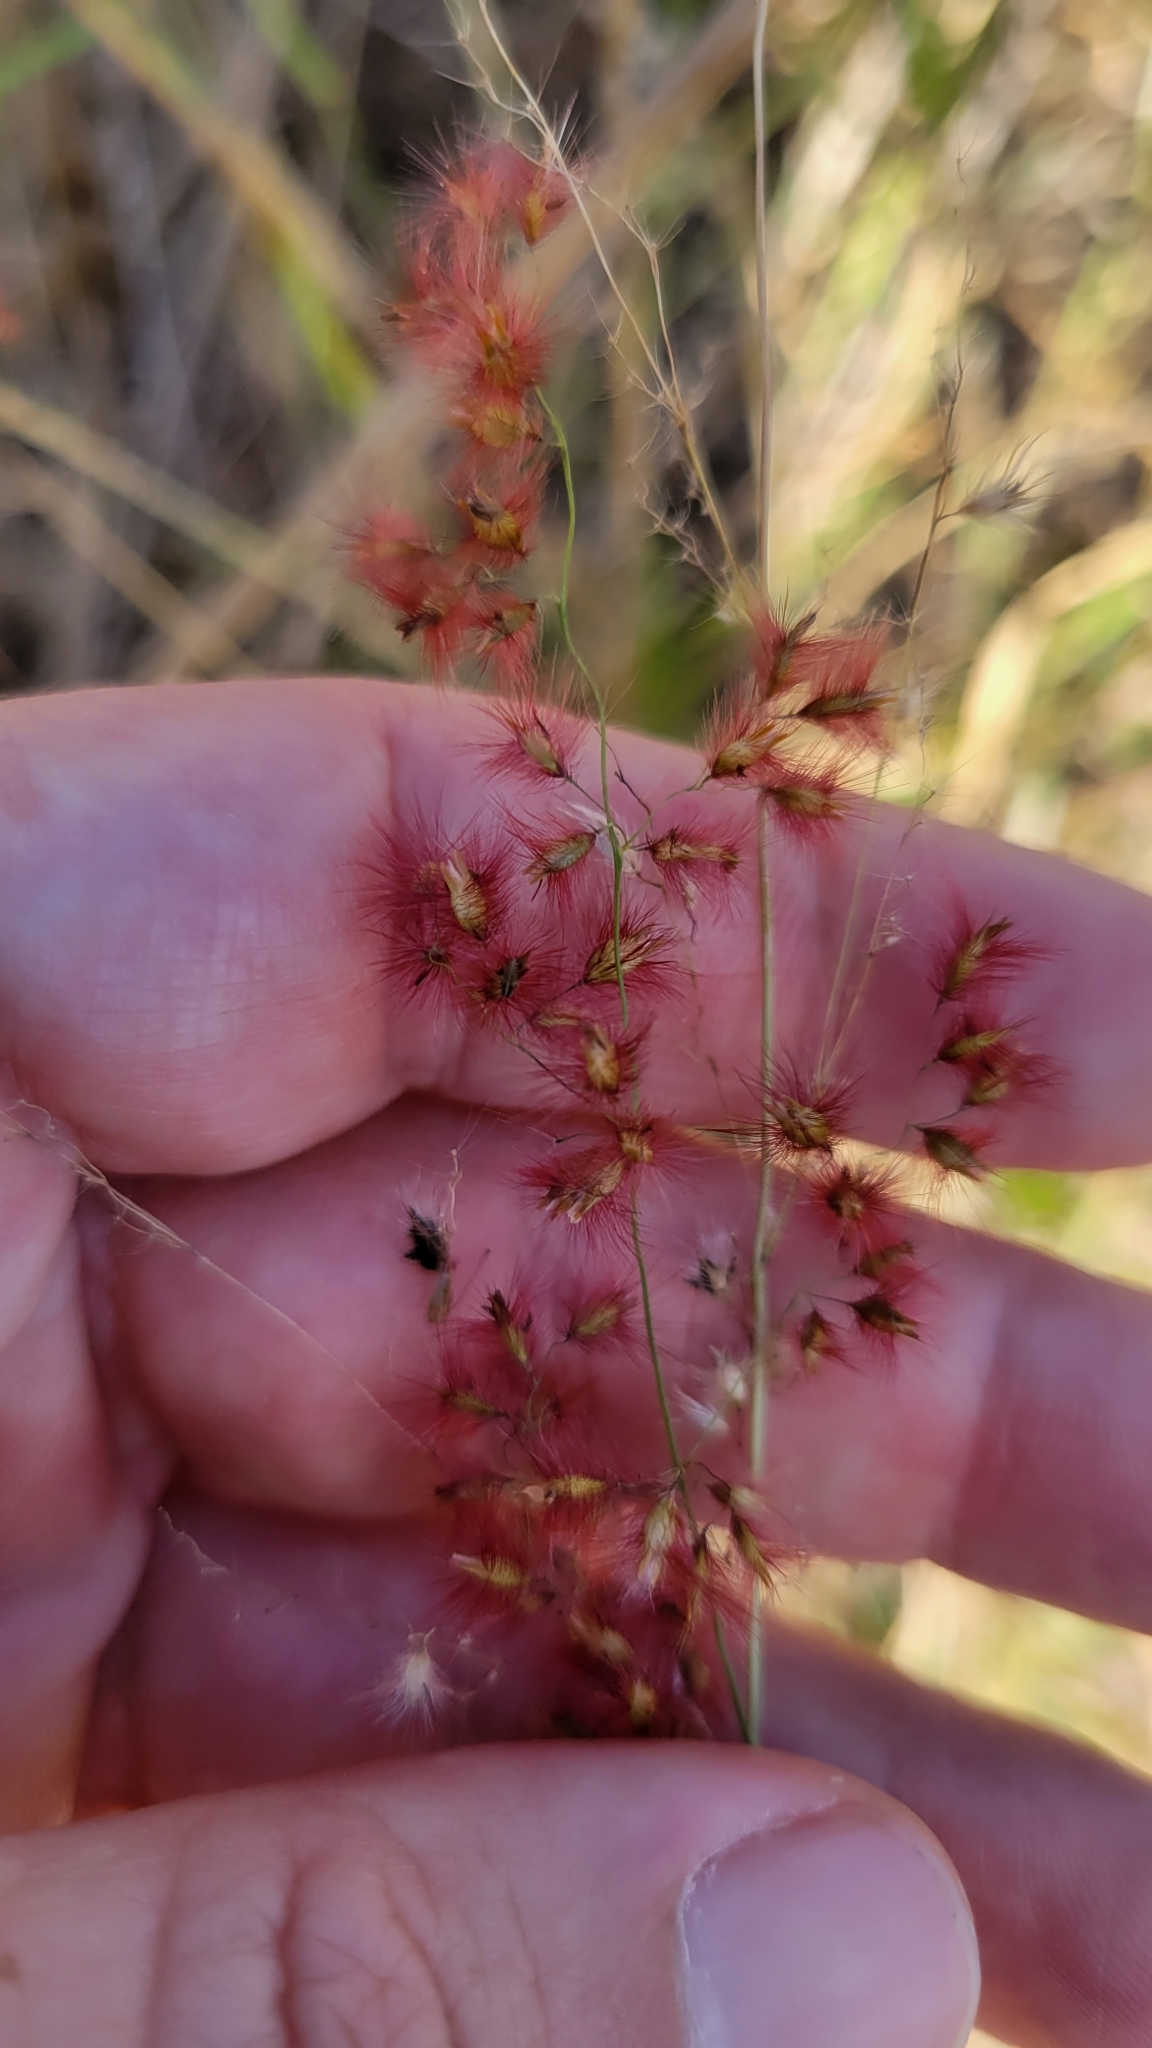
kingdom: Plantae
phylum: Tracheophyta
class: Liliopsida
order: Poales
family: Poaceae
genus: Melinis
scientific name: Melinis repens
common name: Rose natal grass
